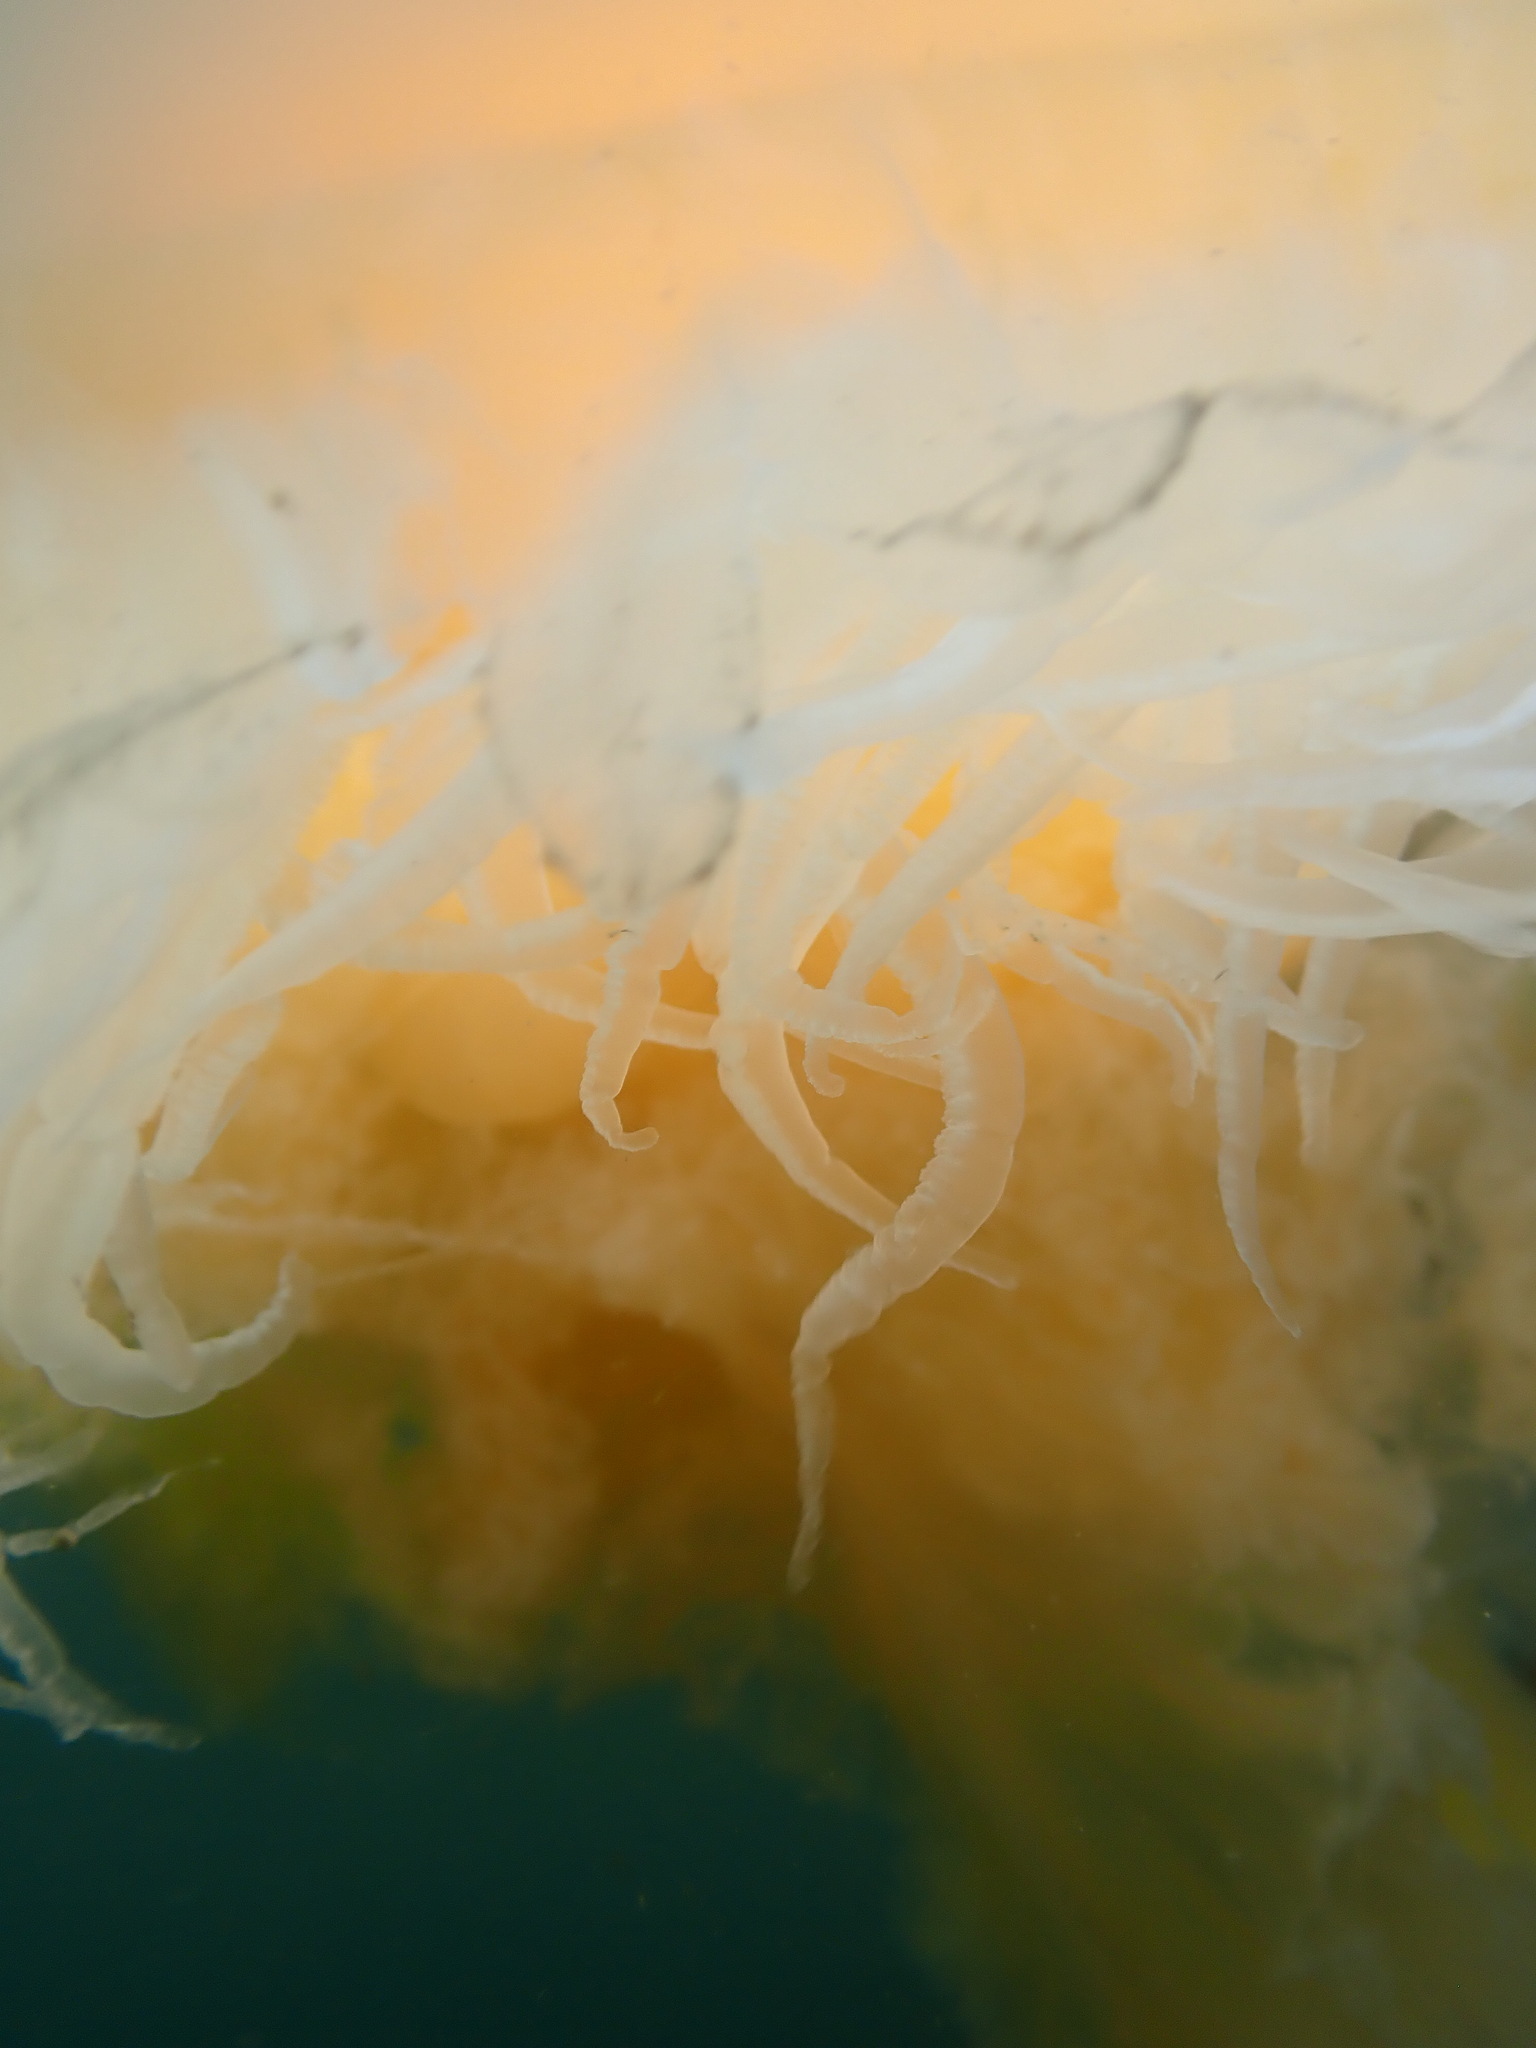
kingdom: Animalia
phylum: Cnidaria
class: Scyphozoa
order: Semaeostomeae
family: Phacellophoridae
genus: Phacellophora
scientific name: Phacellophora camtschatica
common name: Fried-egg jellyfish
